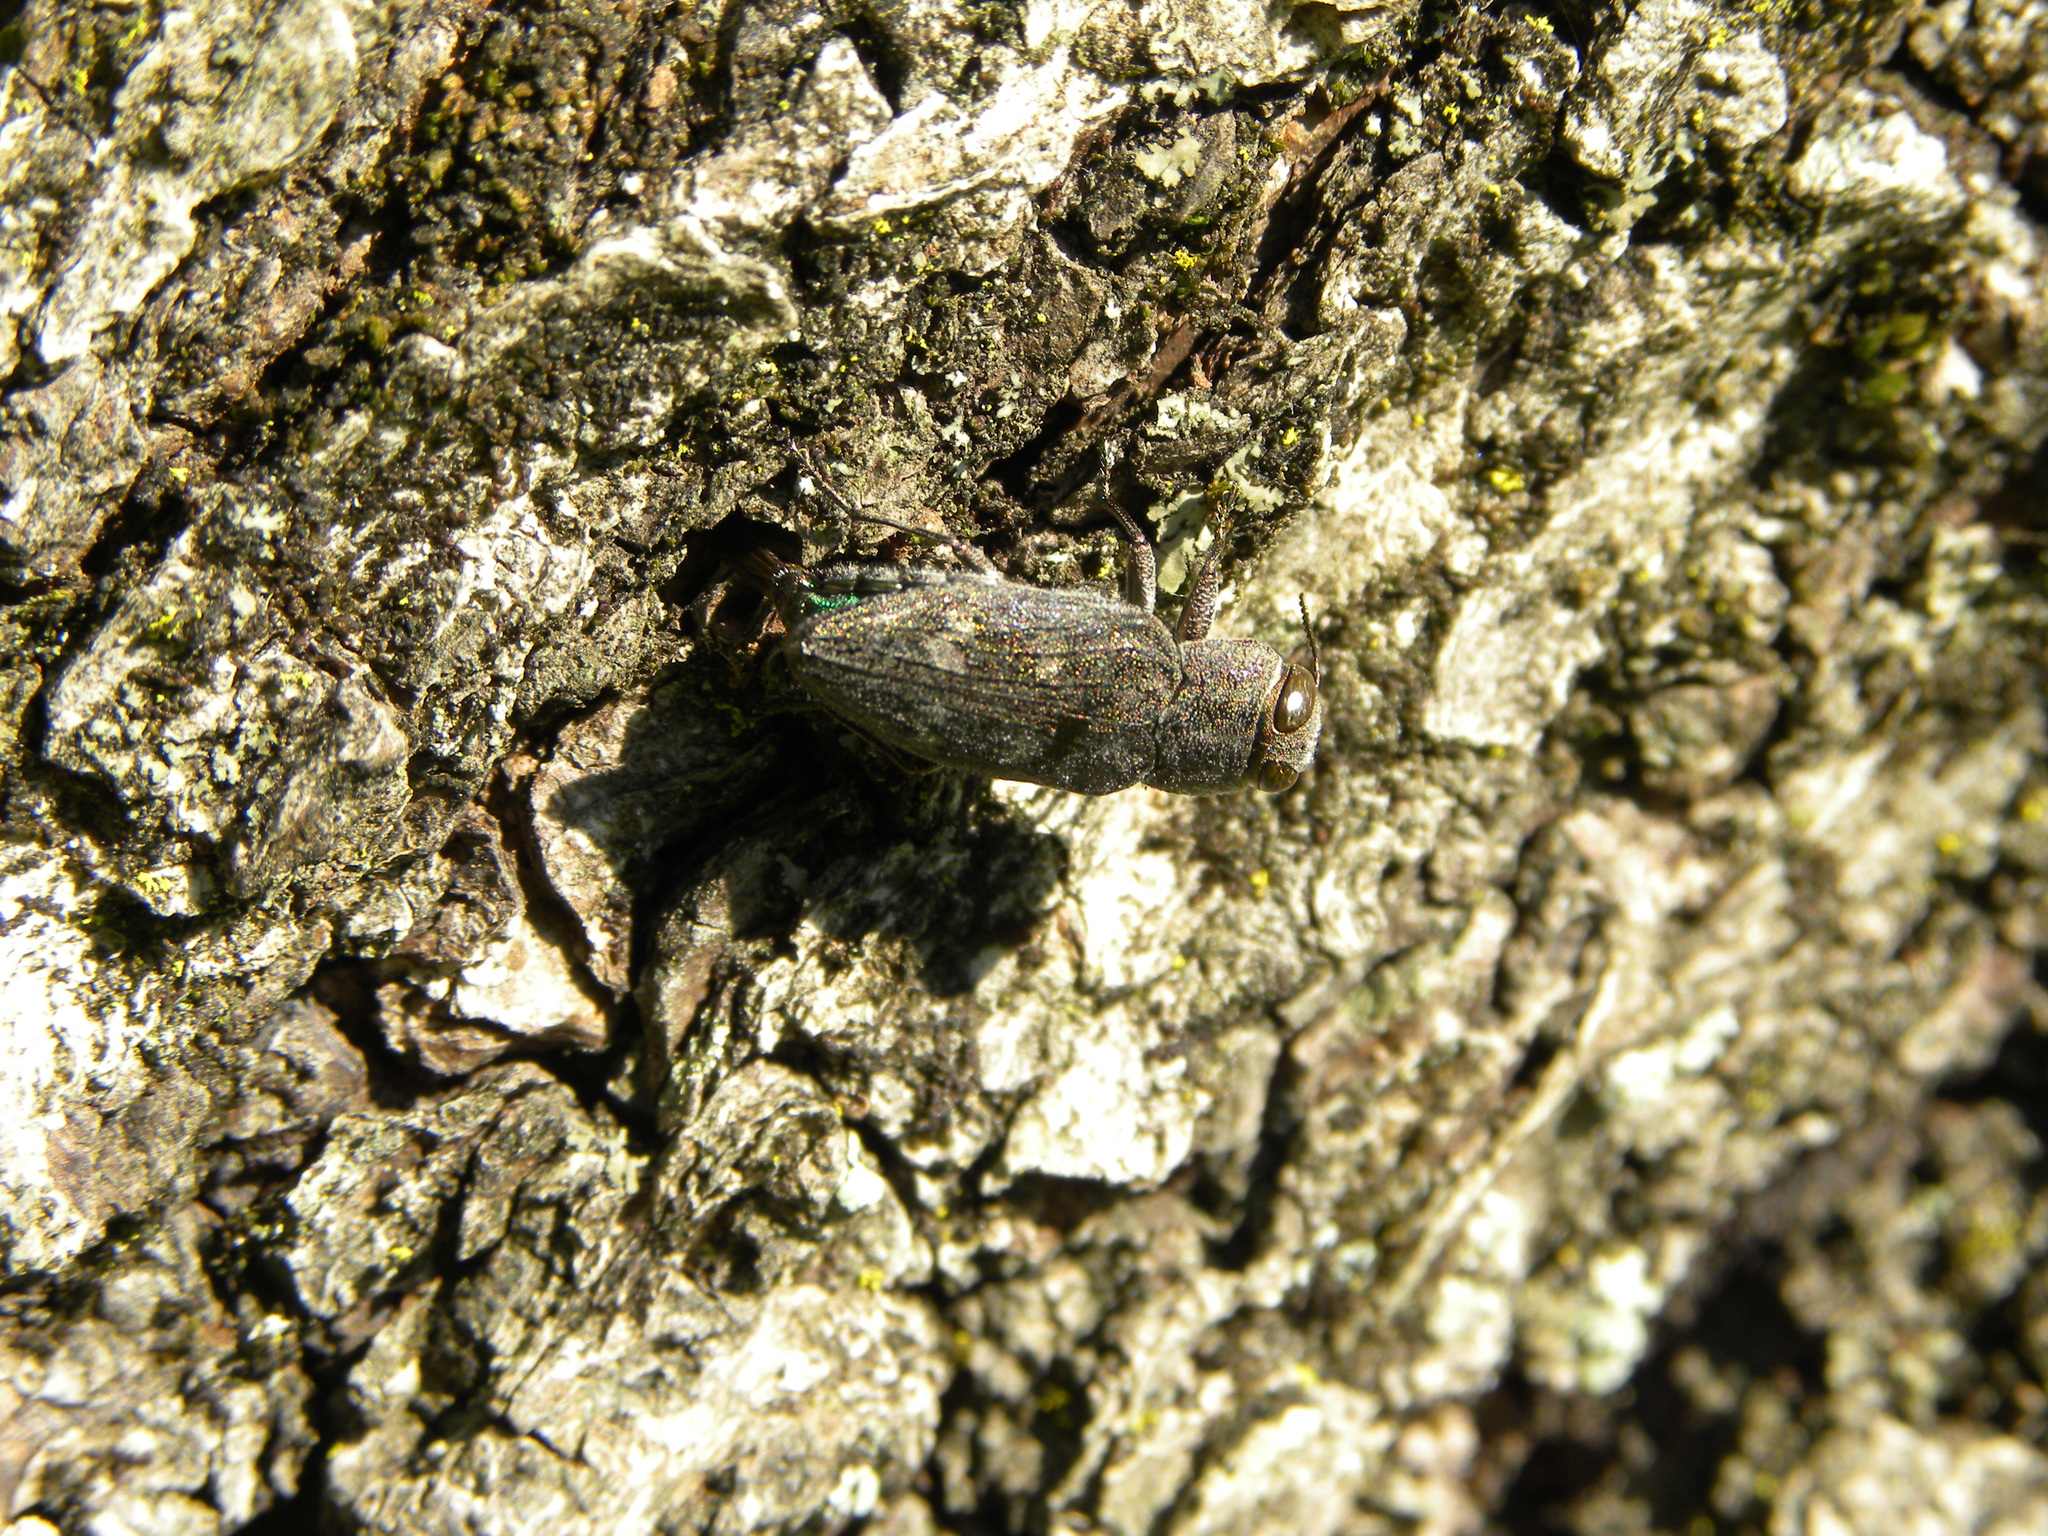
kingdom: Animalia
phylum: Arthropoda
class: Insecta
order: Coleoptera
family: Buprestidae
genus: Chrysobothris
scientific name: Chrysobothris
